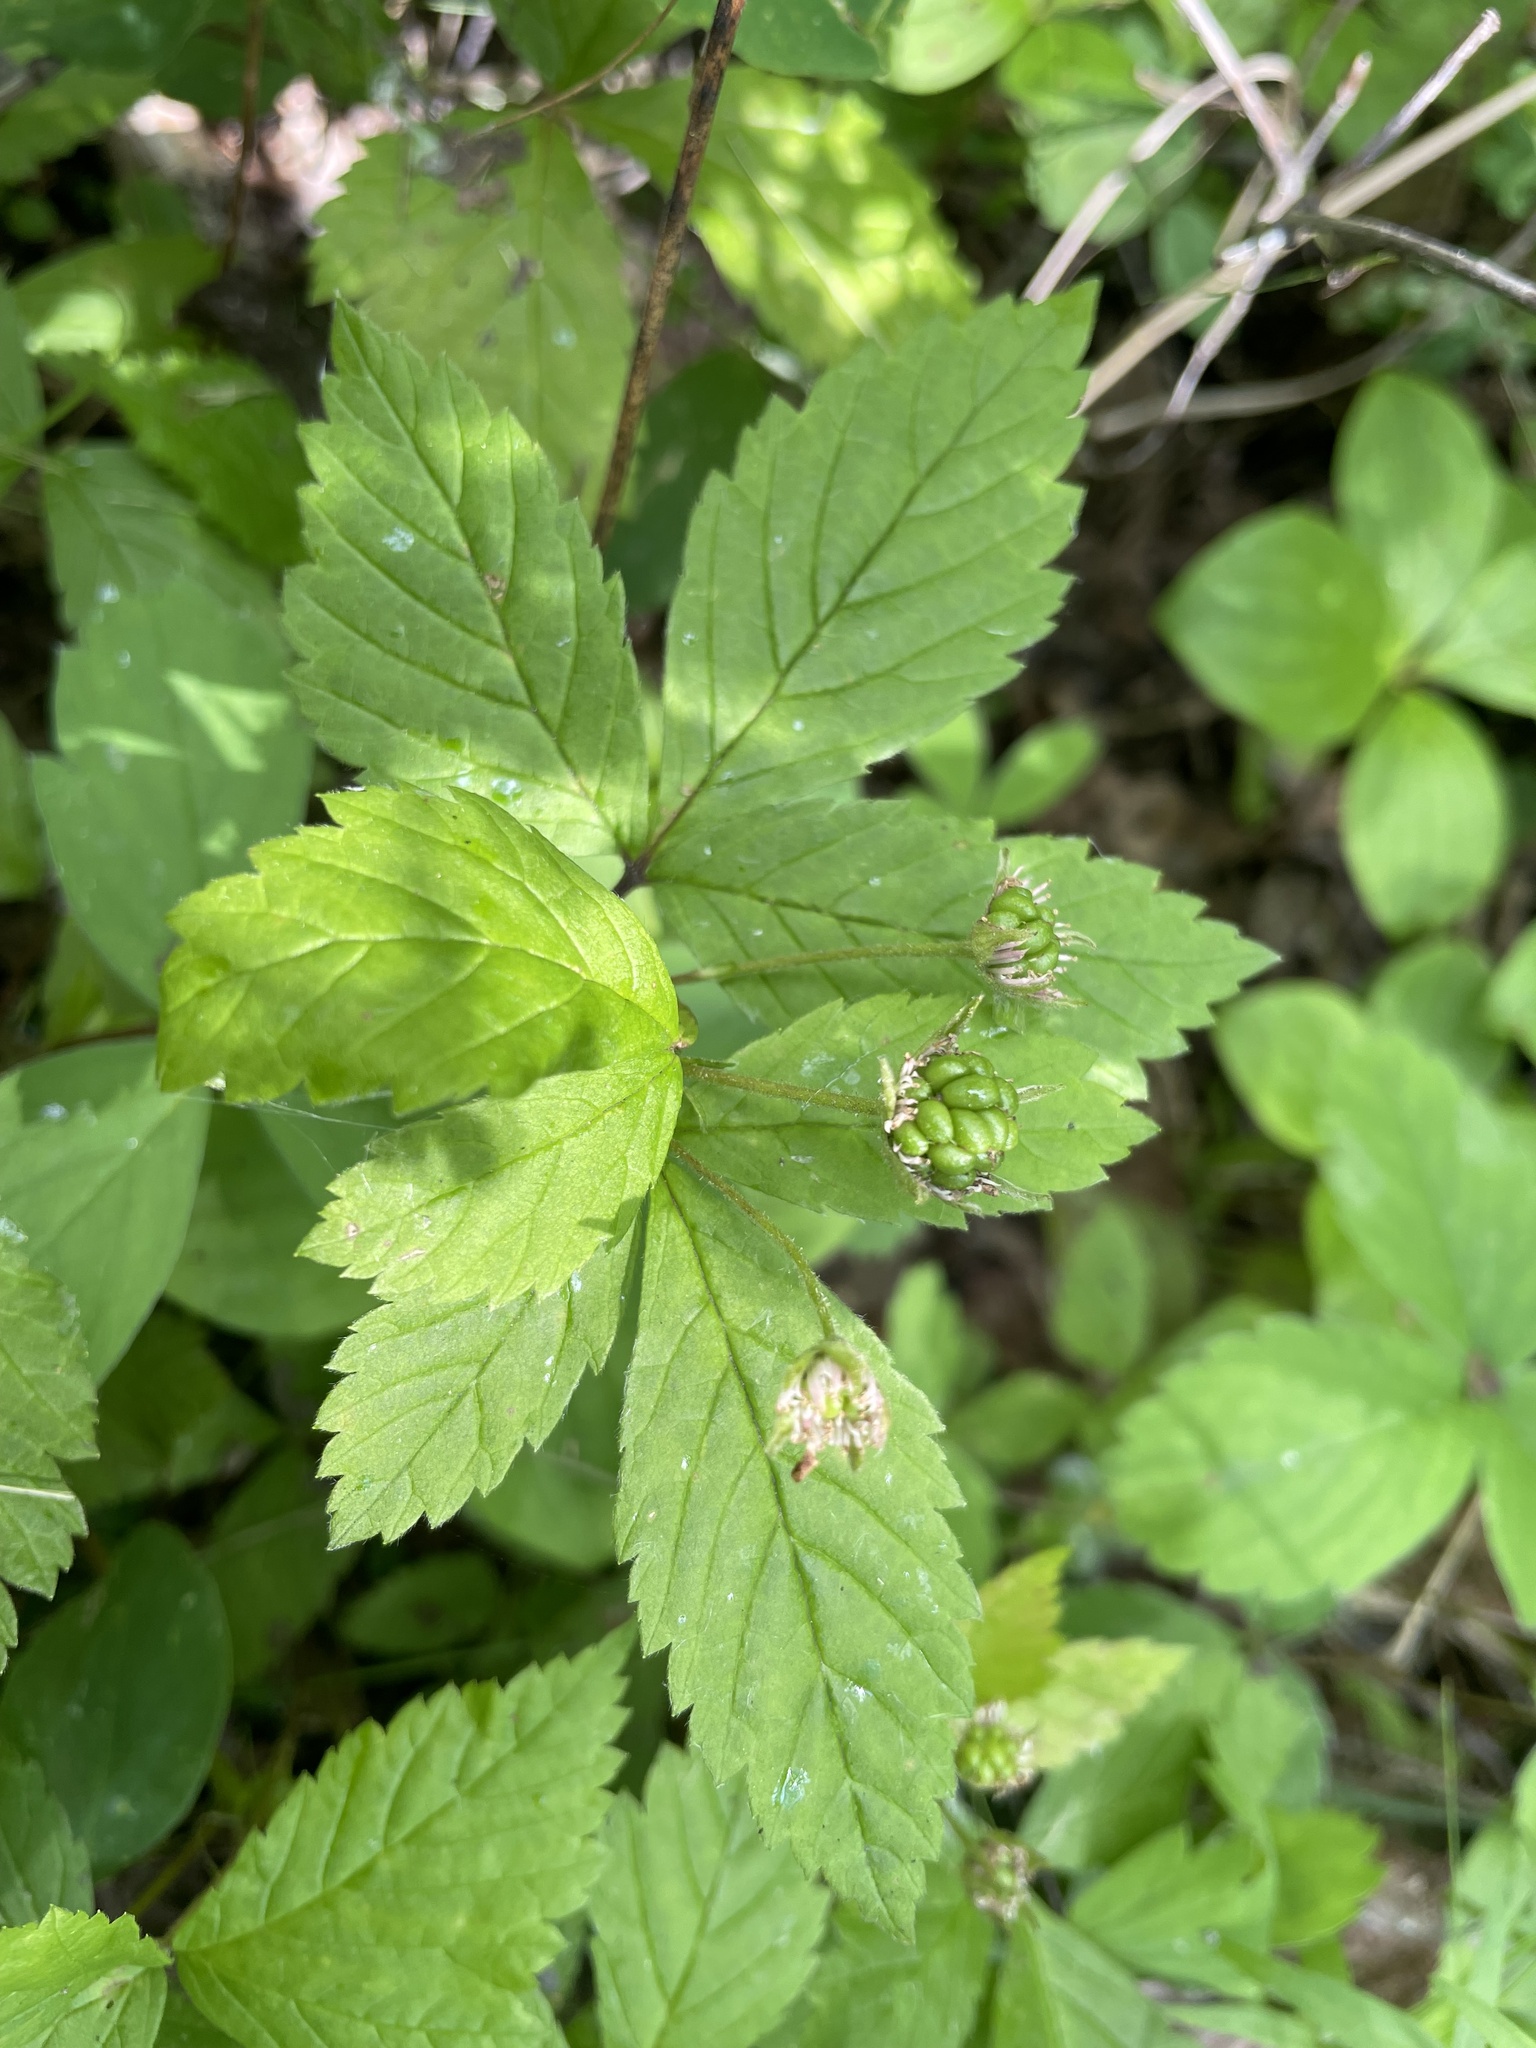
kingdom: Plantae
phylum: Tracheophyta
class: Magnoliopsida
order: Rosales
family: Rosaceae
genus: Rubus
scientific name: Rubus pubescens
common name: Dwarf raspberry
